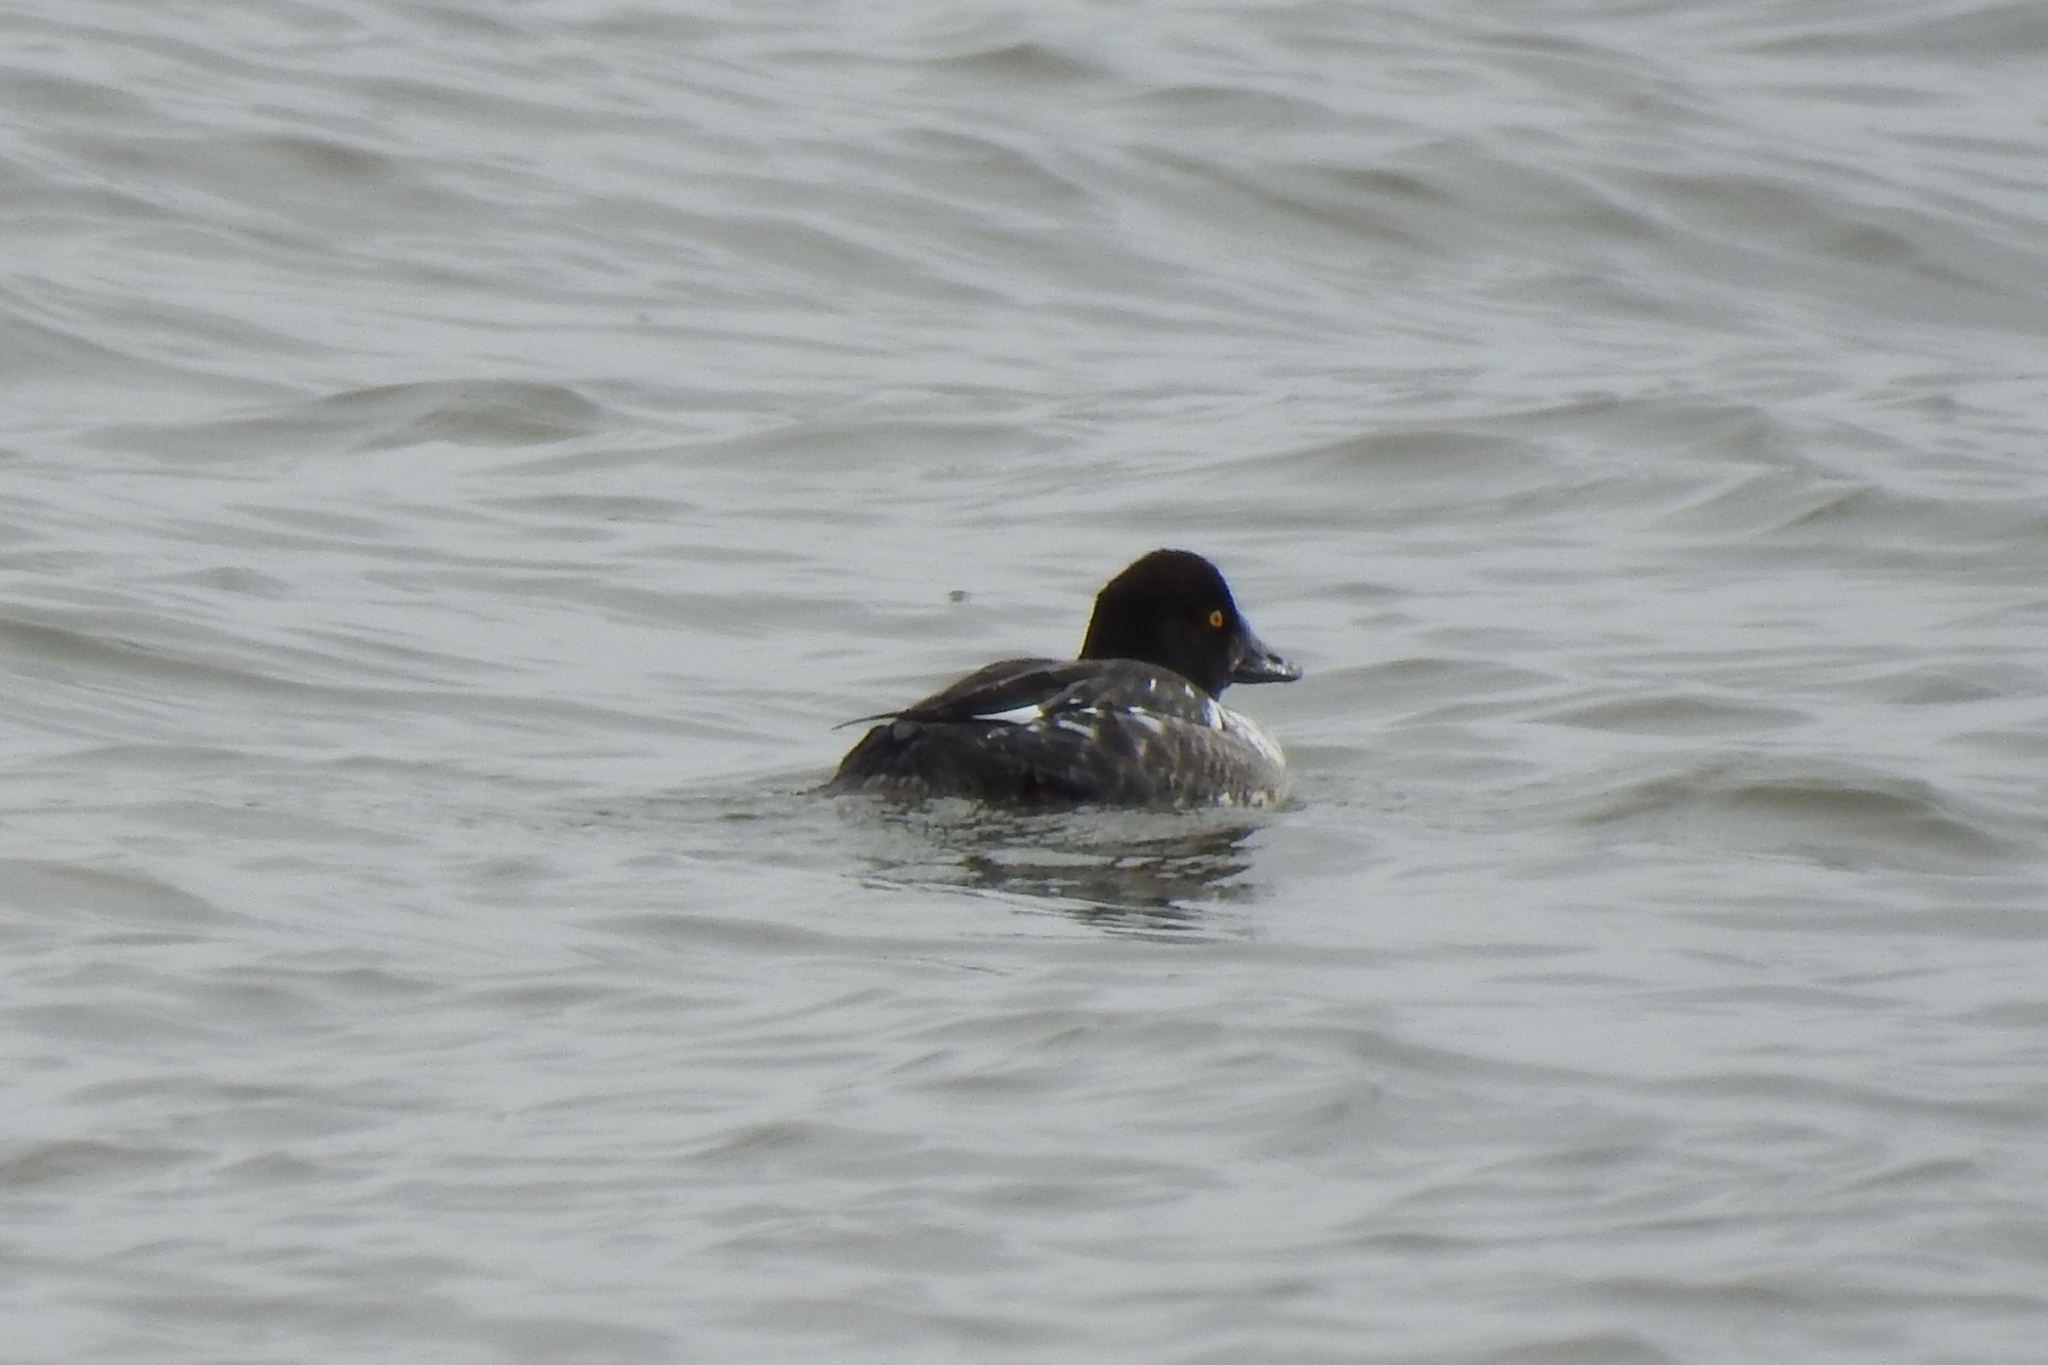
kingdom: Animalia
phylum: Chordata
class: Aves
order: Anseriformes
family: Anatidae
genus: Bucephala
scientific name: Bucephala clangula
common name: Common goldeneye
